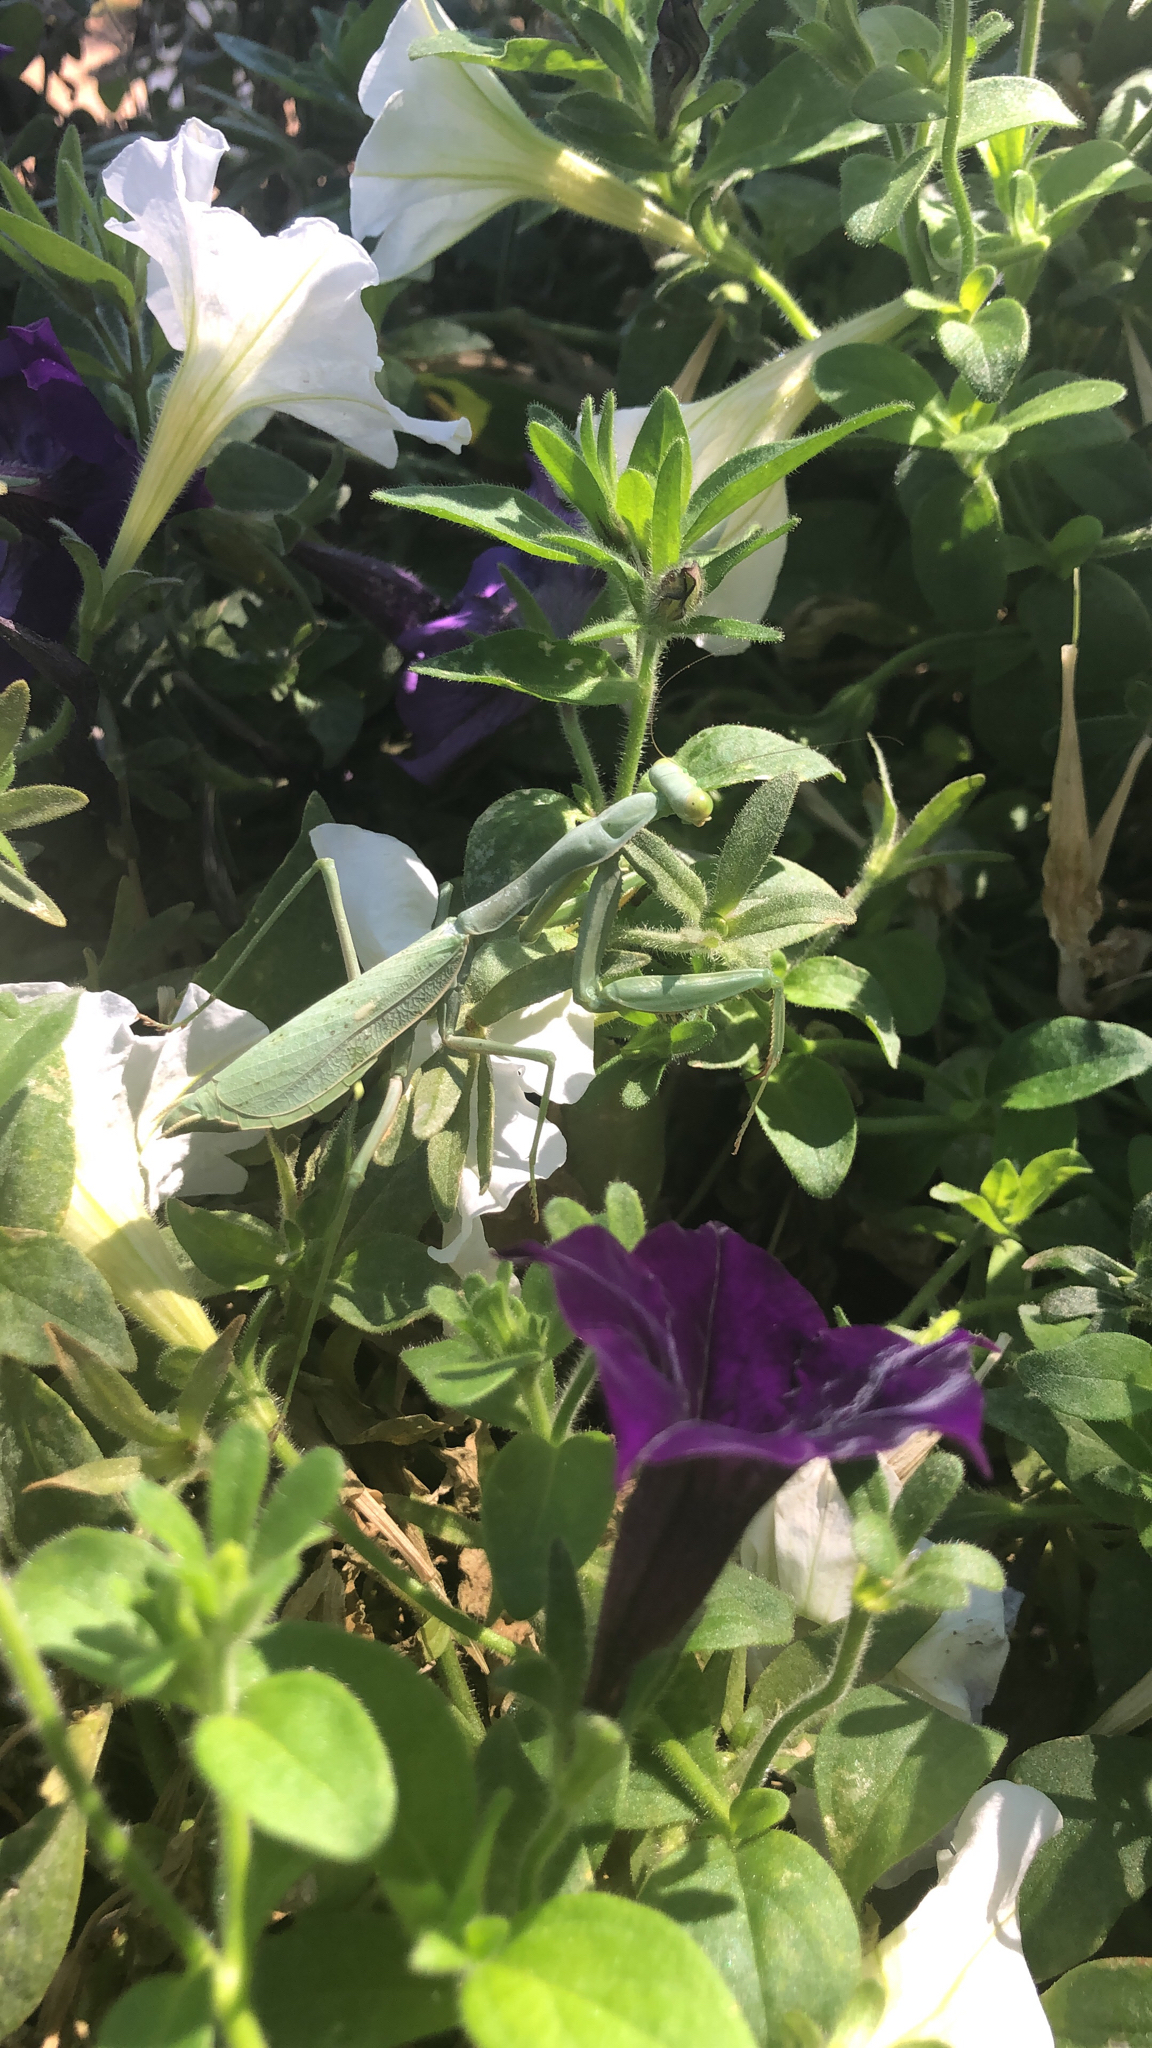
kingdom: Animalia
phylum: Arthropoda
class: Insecta
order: Mantodea
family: Mantidae
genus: Stagmomantis
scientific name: Stagmomantis limbata
